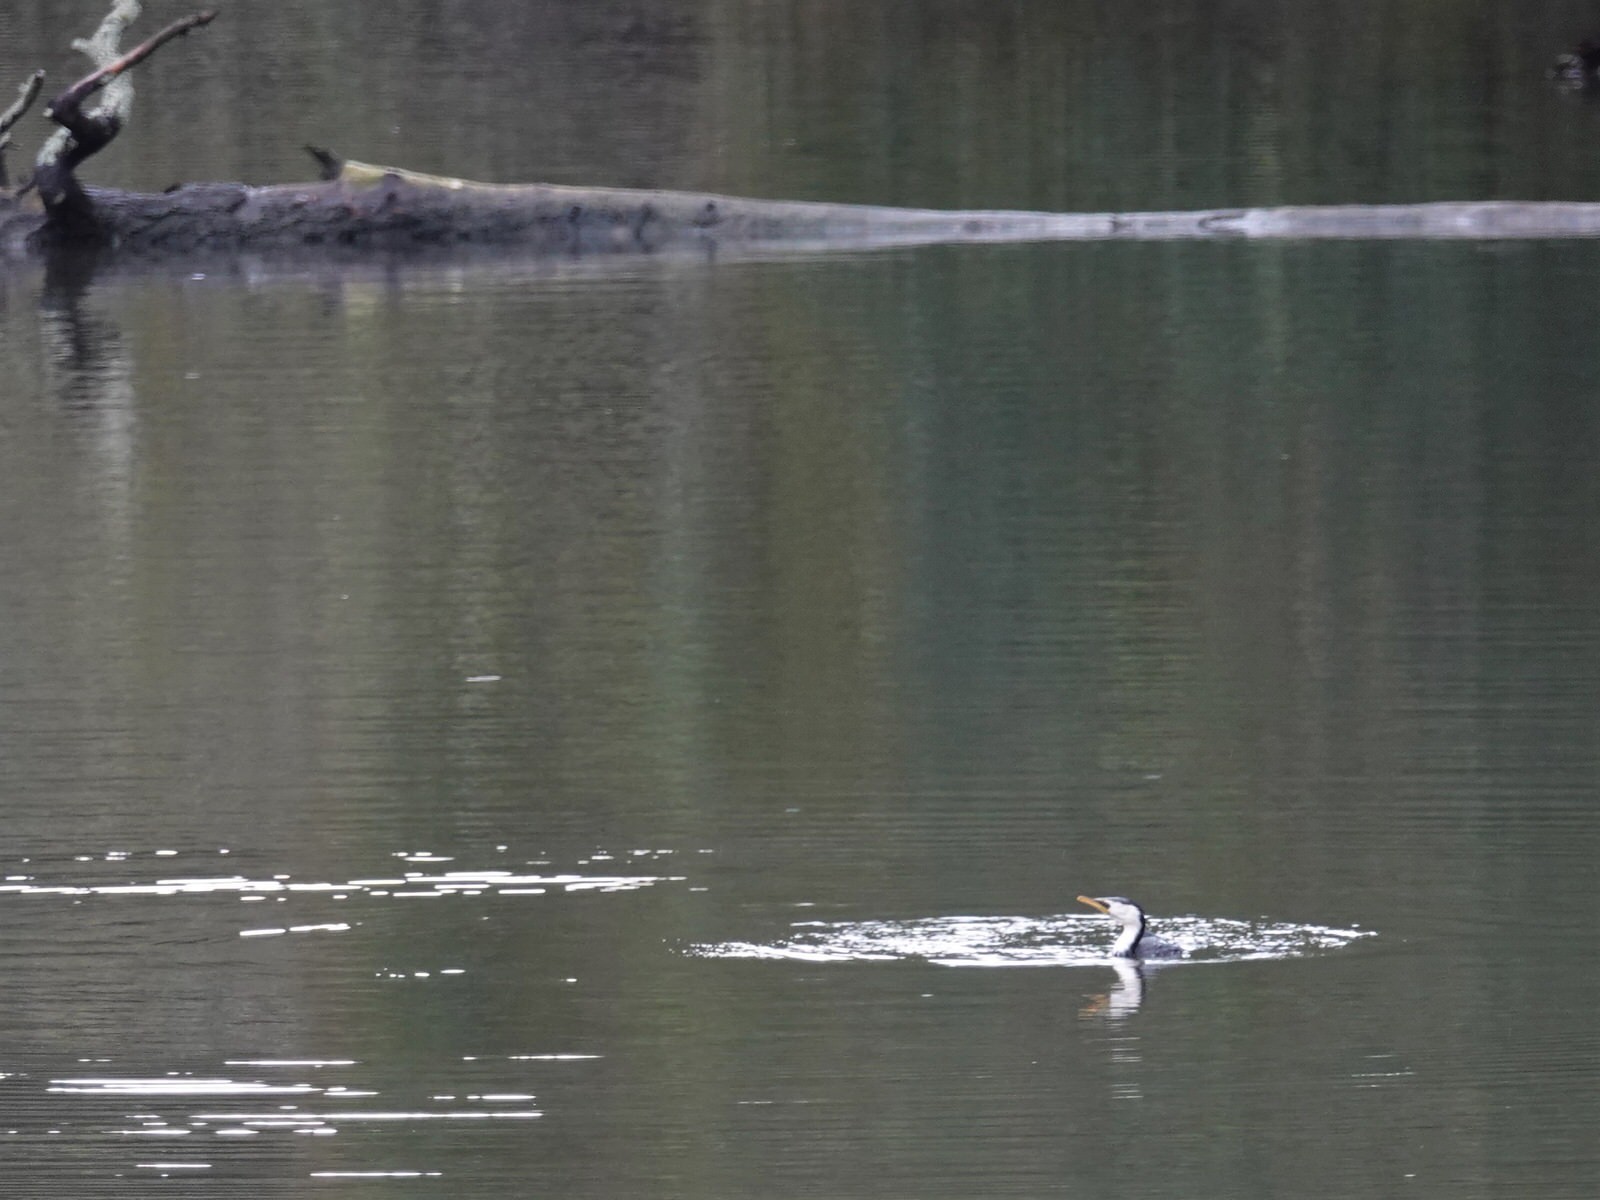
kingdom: Animalia
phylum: Chordata
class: Aves
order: Suliformes
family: Phalacrocoracidae
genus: Microcarbo
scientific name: Microcarbo melanoleucos
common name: Little pied cormorant
